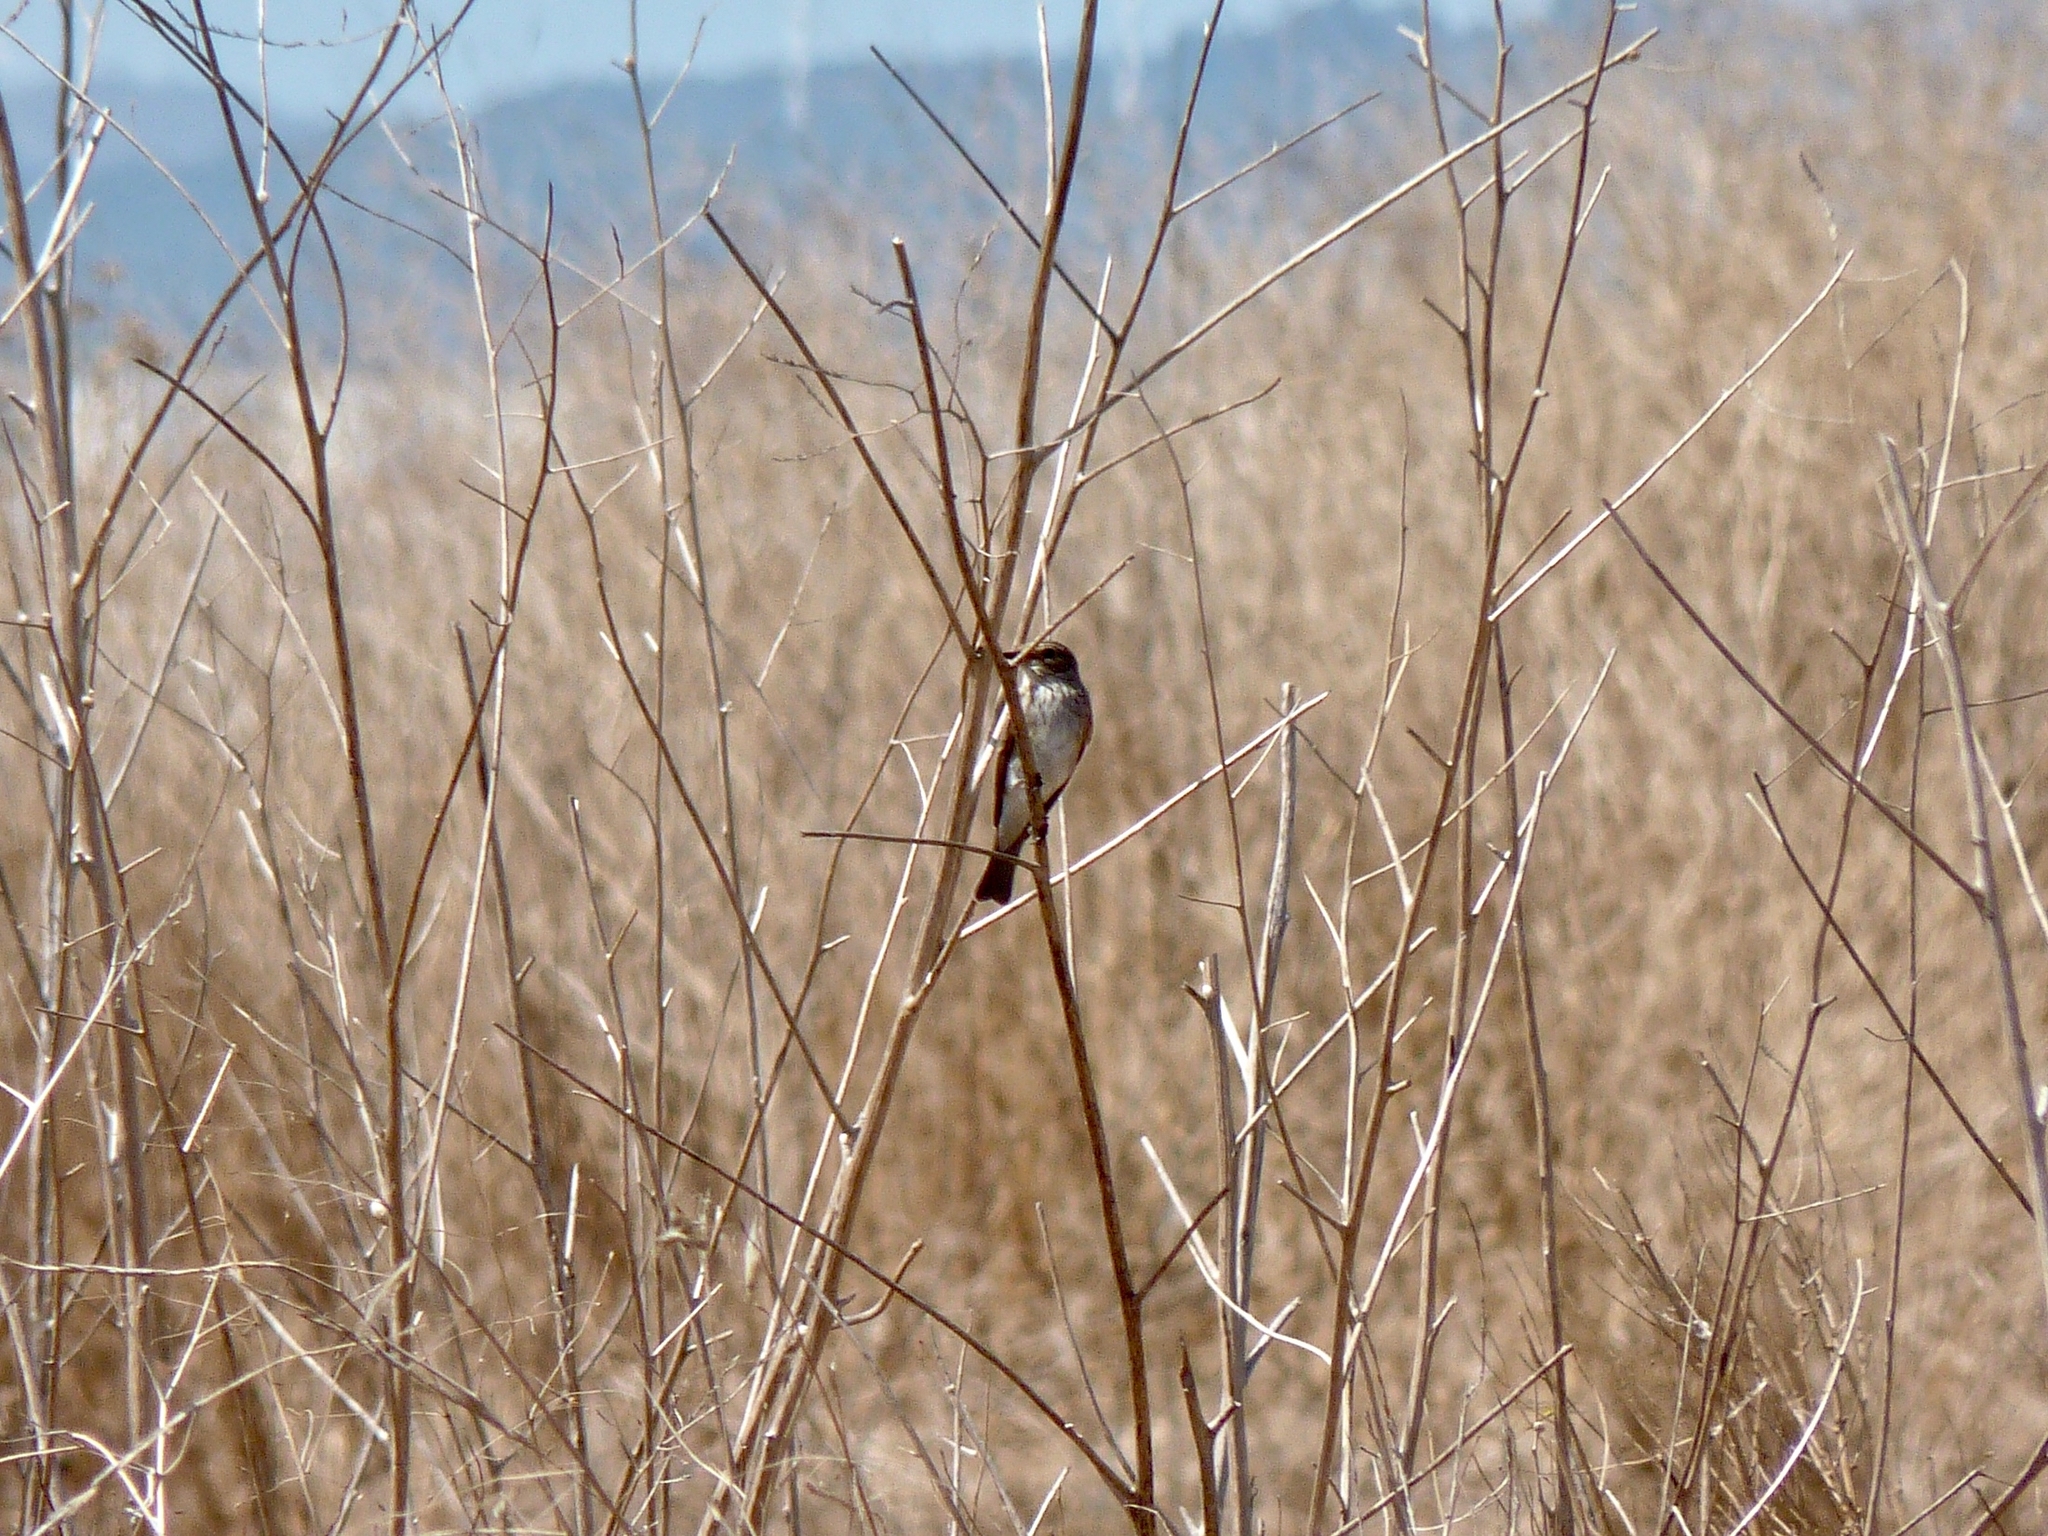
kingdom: Animalia
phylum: Chordata
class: Aves
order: Passeriformes
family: Muscicapidae
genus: Muscicapa
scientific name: Muscicapa striata
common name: Spotted flycatcher
